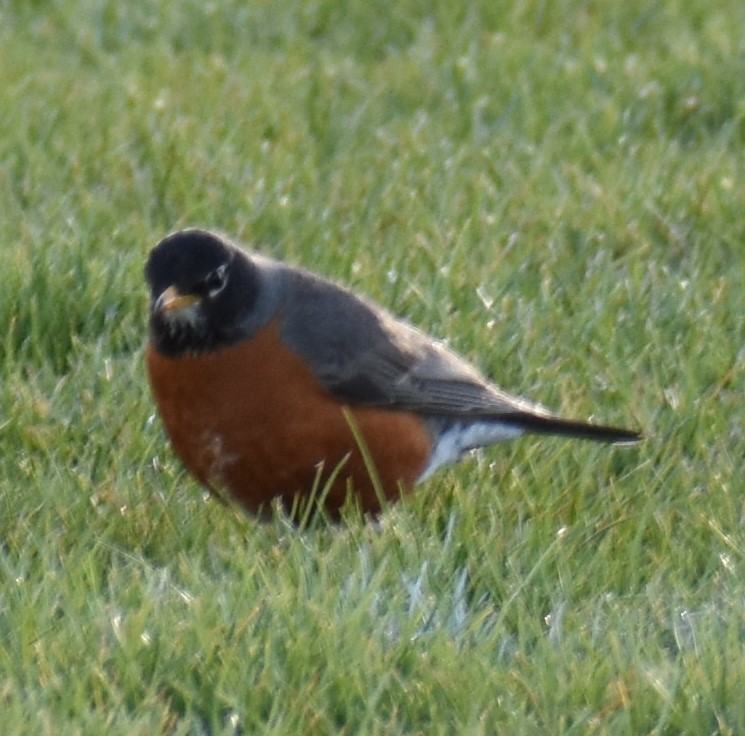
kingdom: Animalia
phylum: Chordata
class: Aves
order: Passeriformes
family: Turdidae
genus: Turdus
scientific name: Turdus migratorius
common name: American robin
